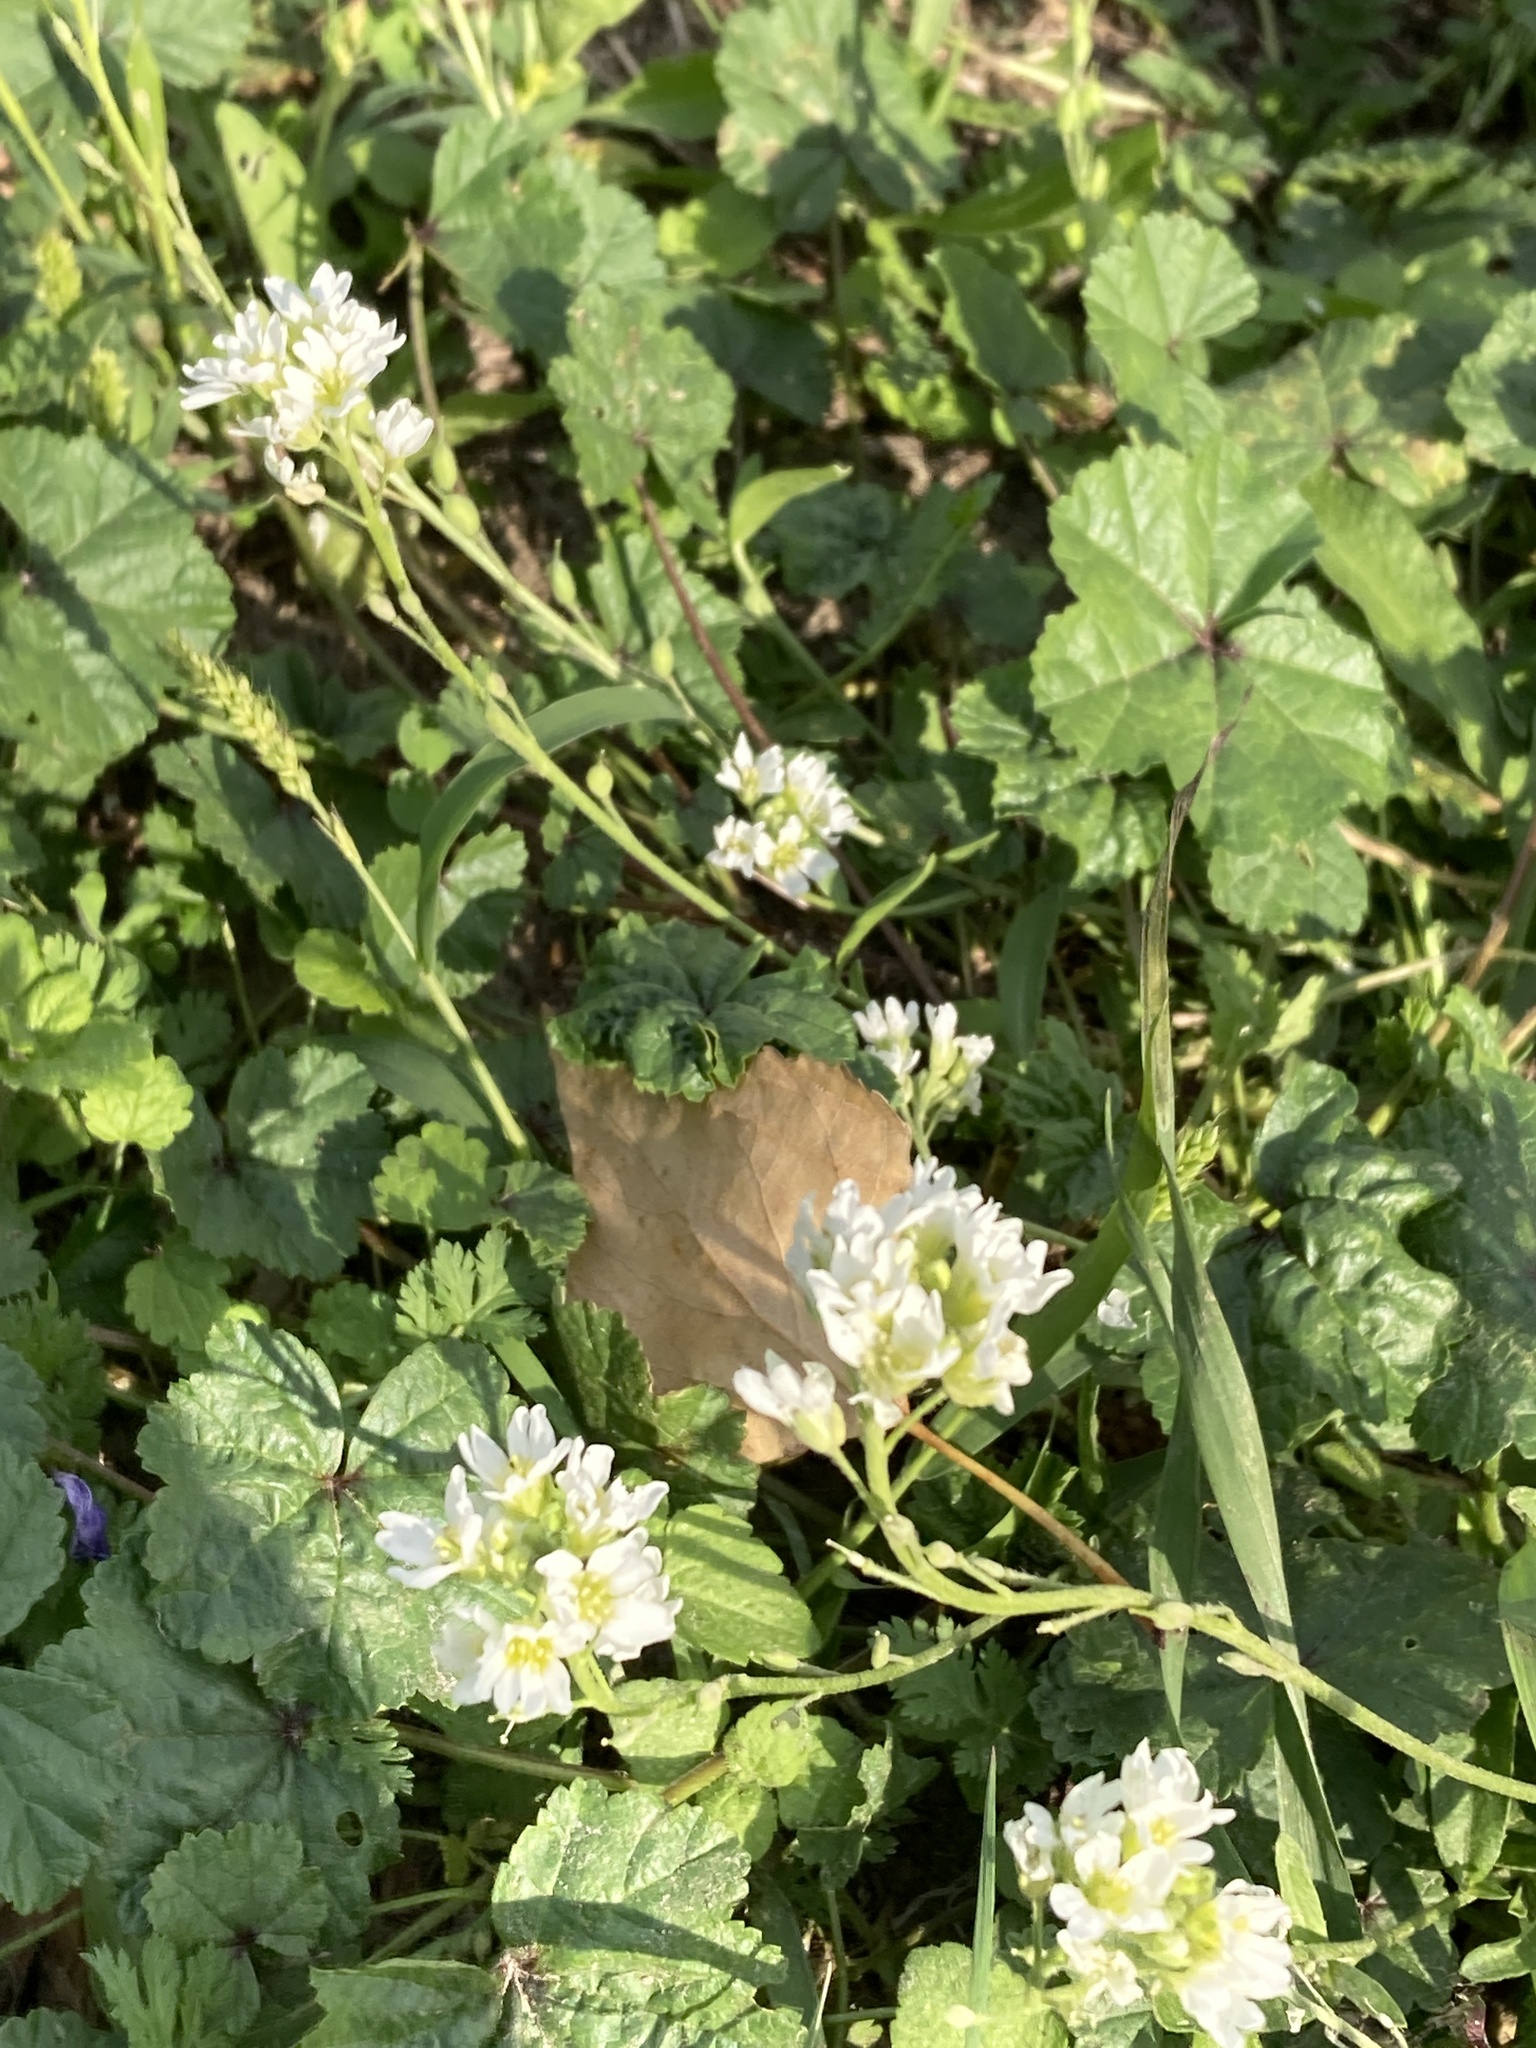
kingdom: Plantae
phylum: Tracheophyta
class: Magnoliopsida
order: Brassicales
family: Brassicaceae
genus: Berteroa
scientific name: Berteroa incana
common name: Hoary alison
